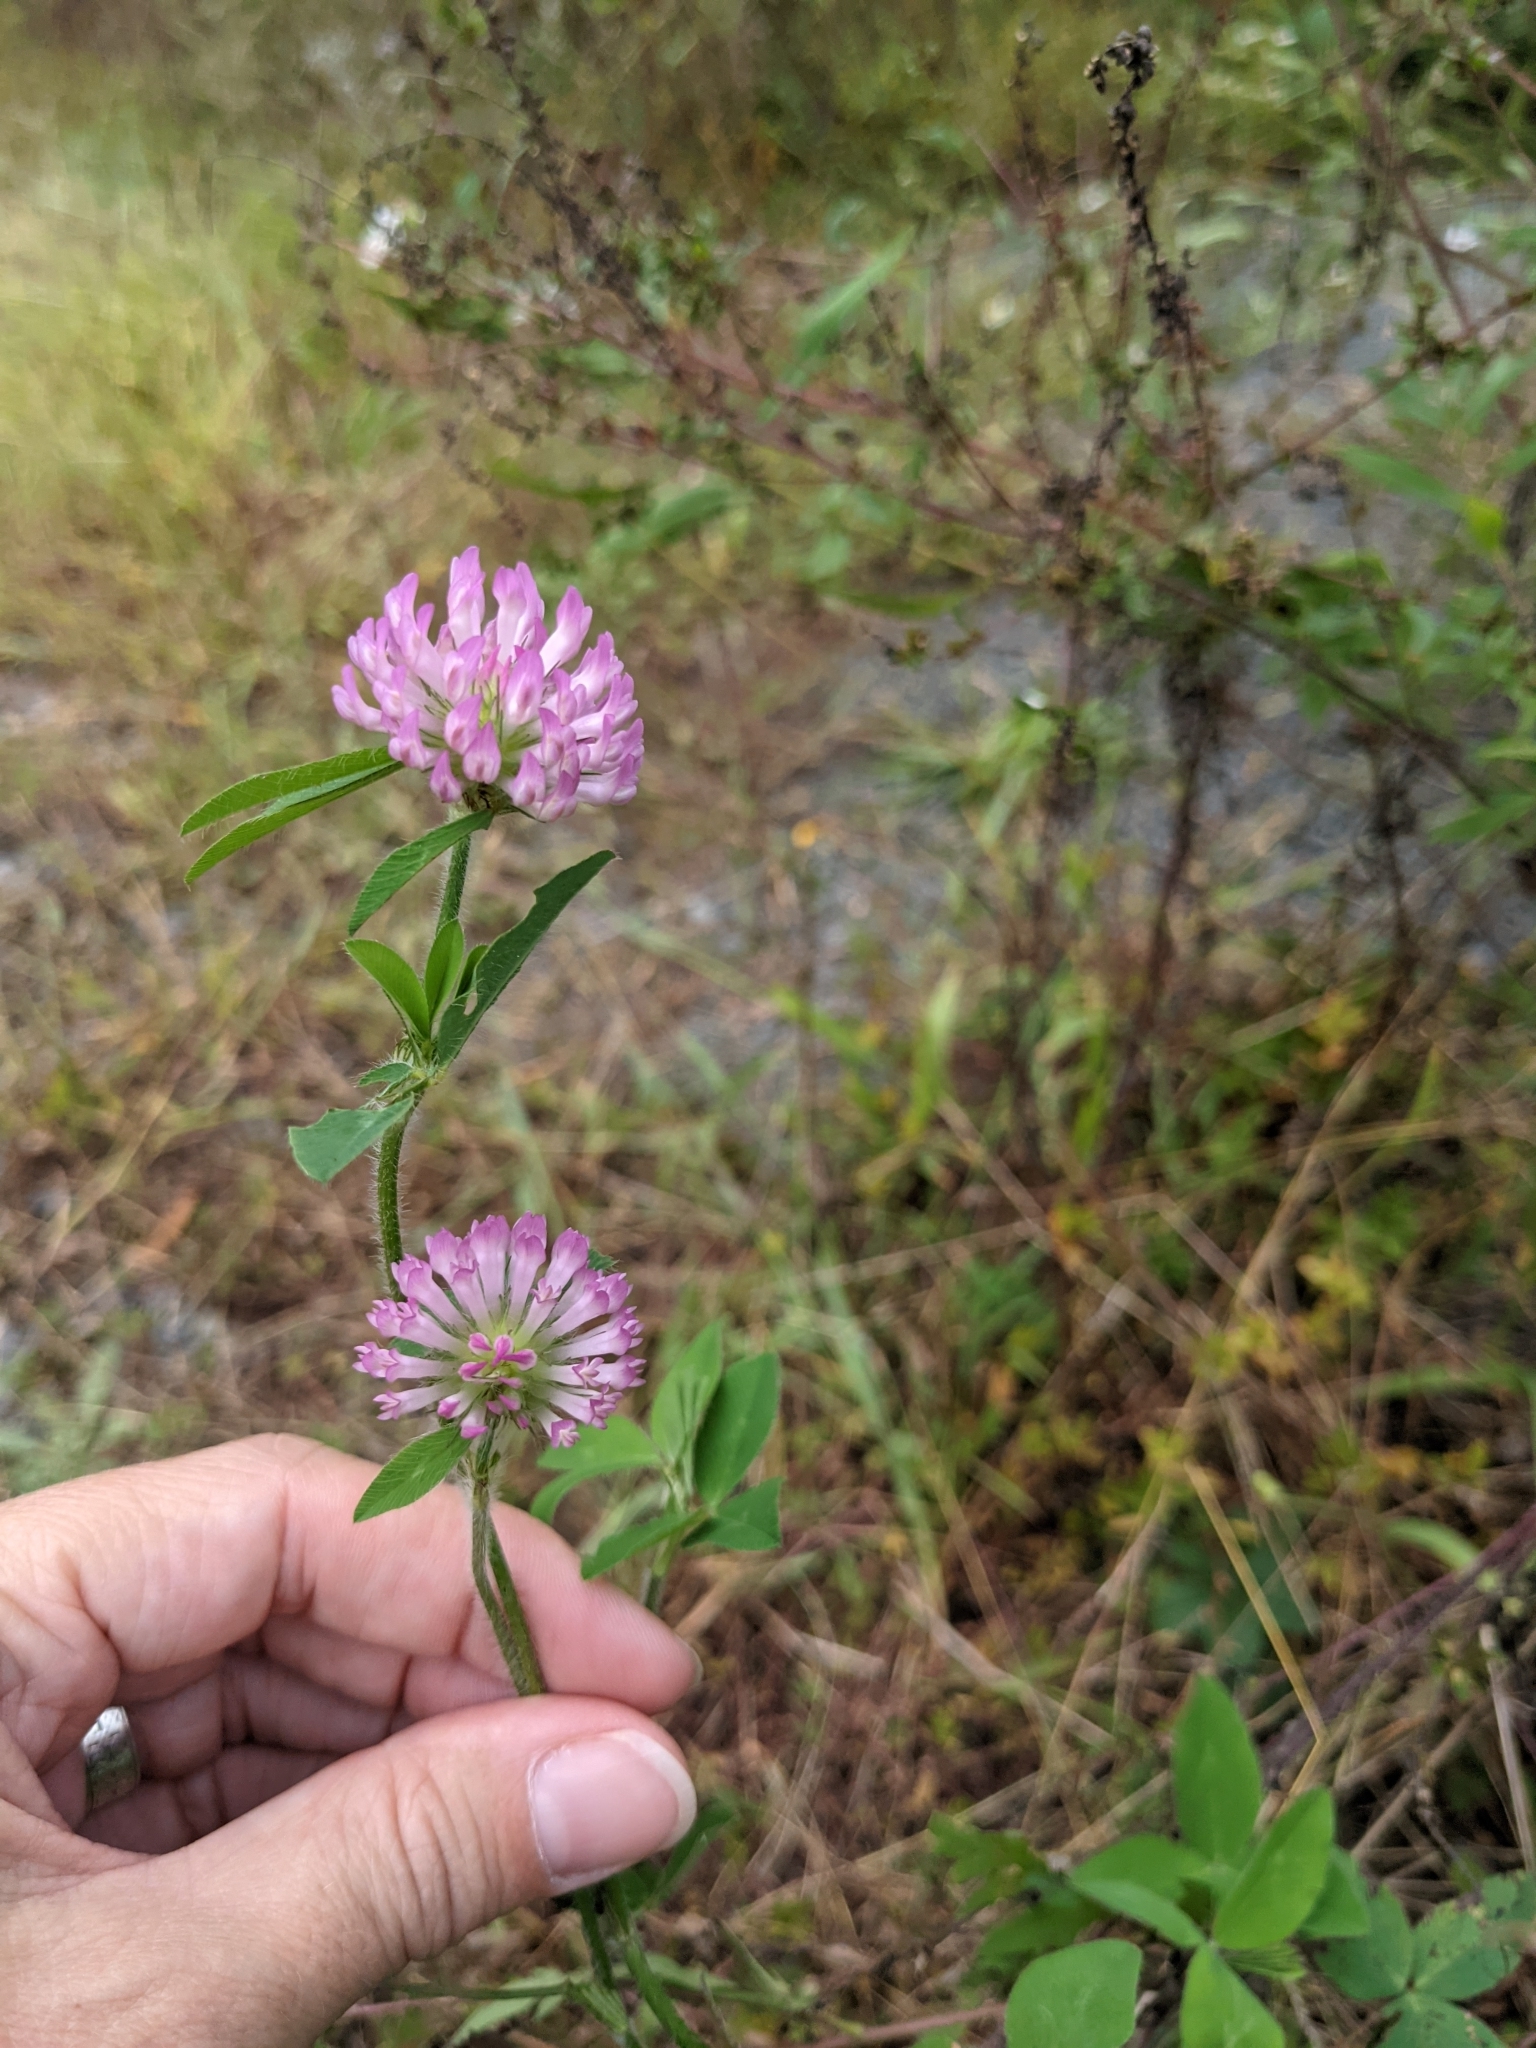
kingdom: Plantae
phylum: Tracheophyta
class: Magnoliopsida
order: Fabales
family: Fabaceae
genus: Trifolium
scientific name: Trifolium pratense
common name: Red clover
